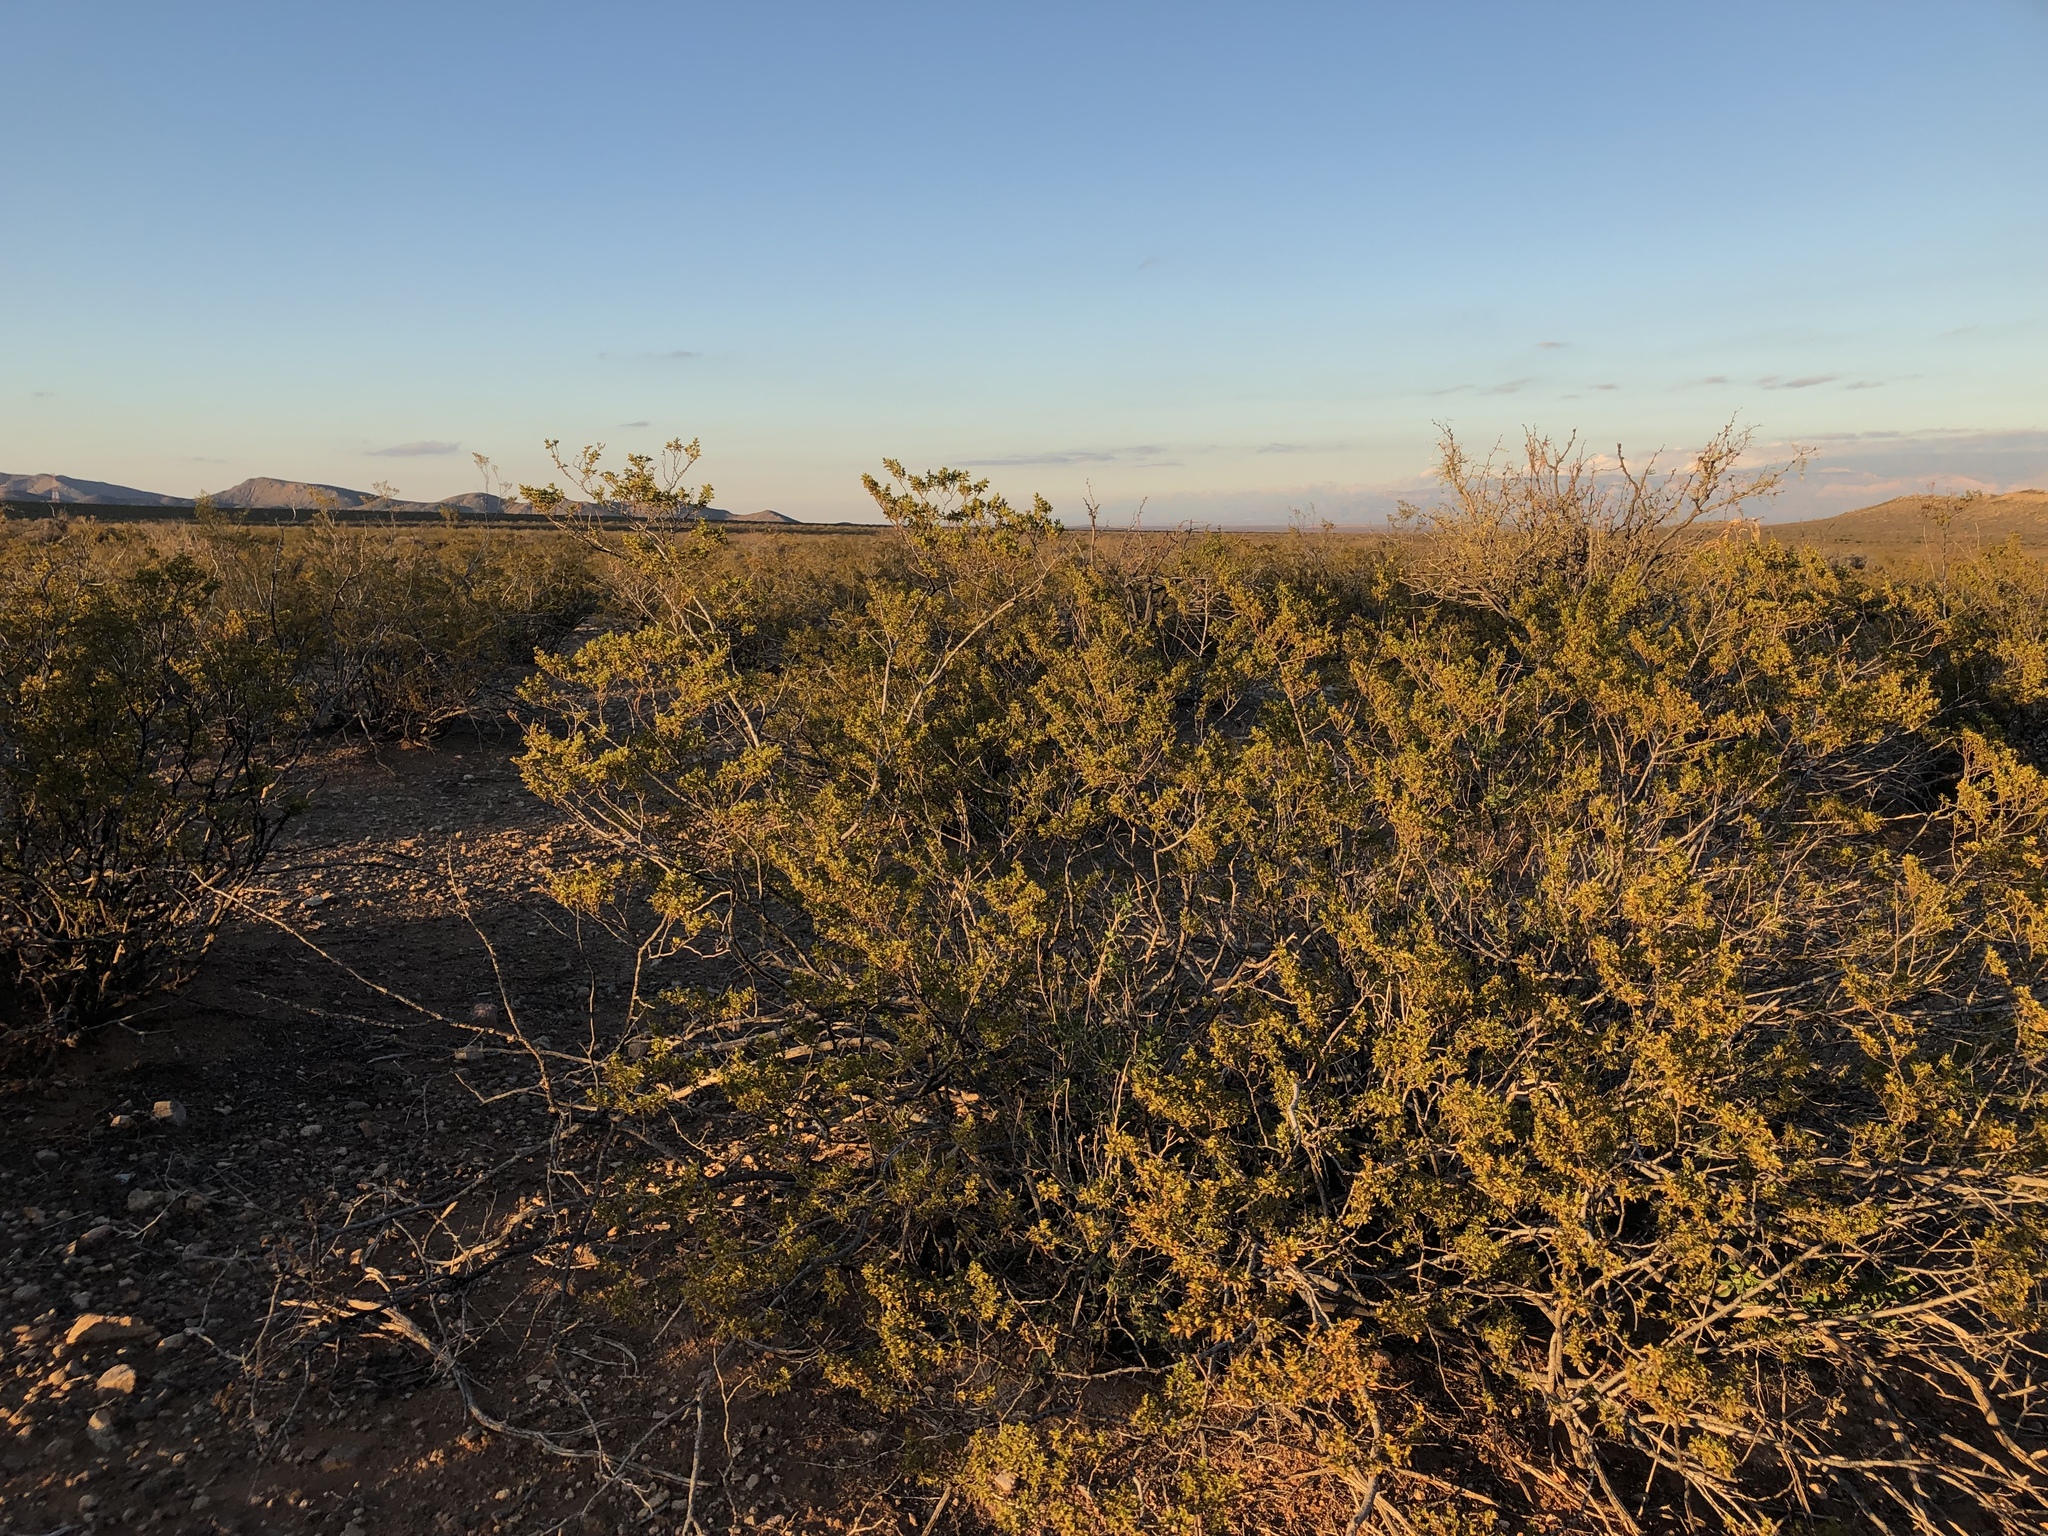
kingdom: Plantae
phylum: Tracheophyta
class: Magnoliopsida
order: Zygophyllales
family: Zygophyllaceae
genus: Larrea
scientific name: Larrea tridentata
